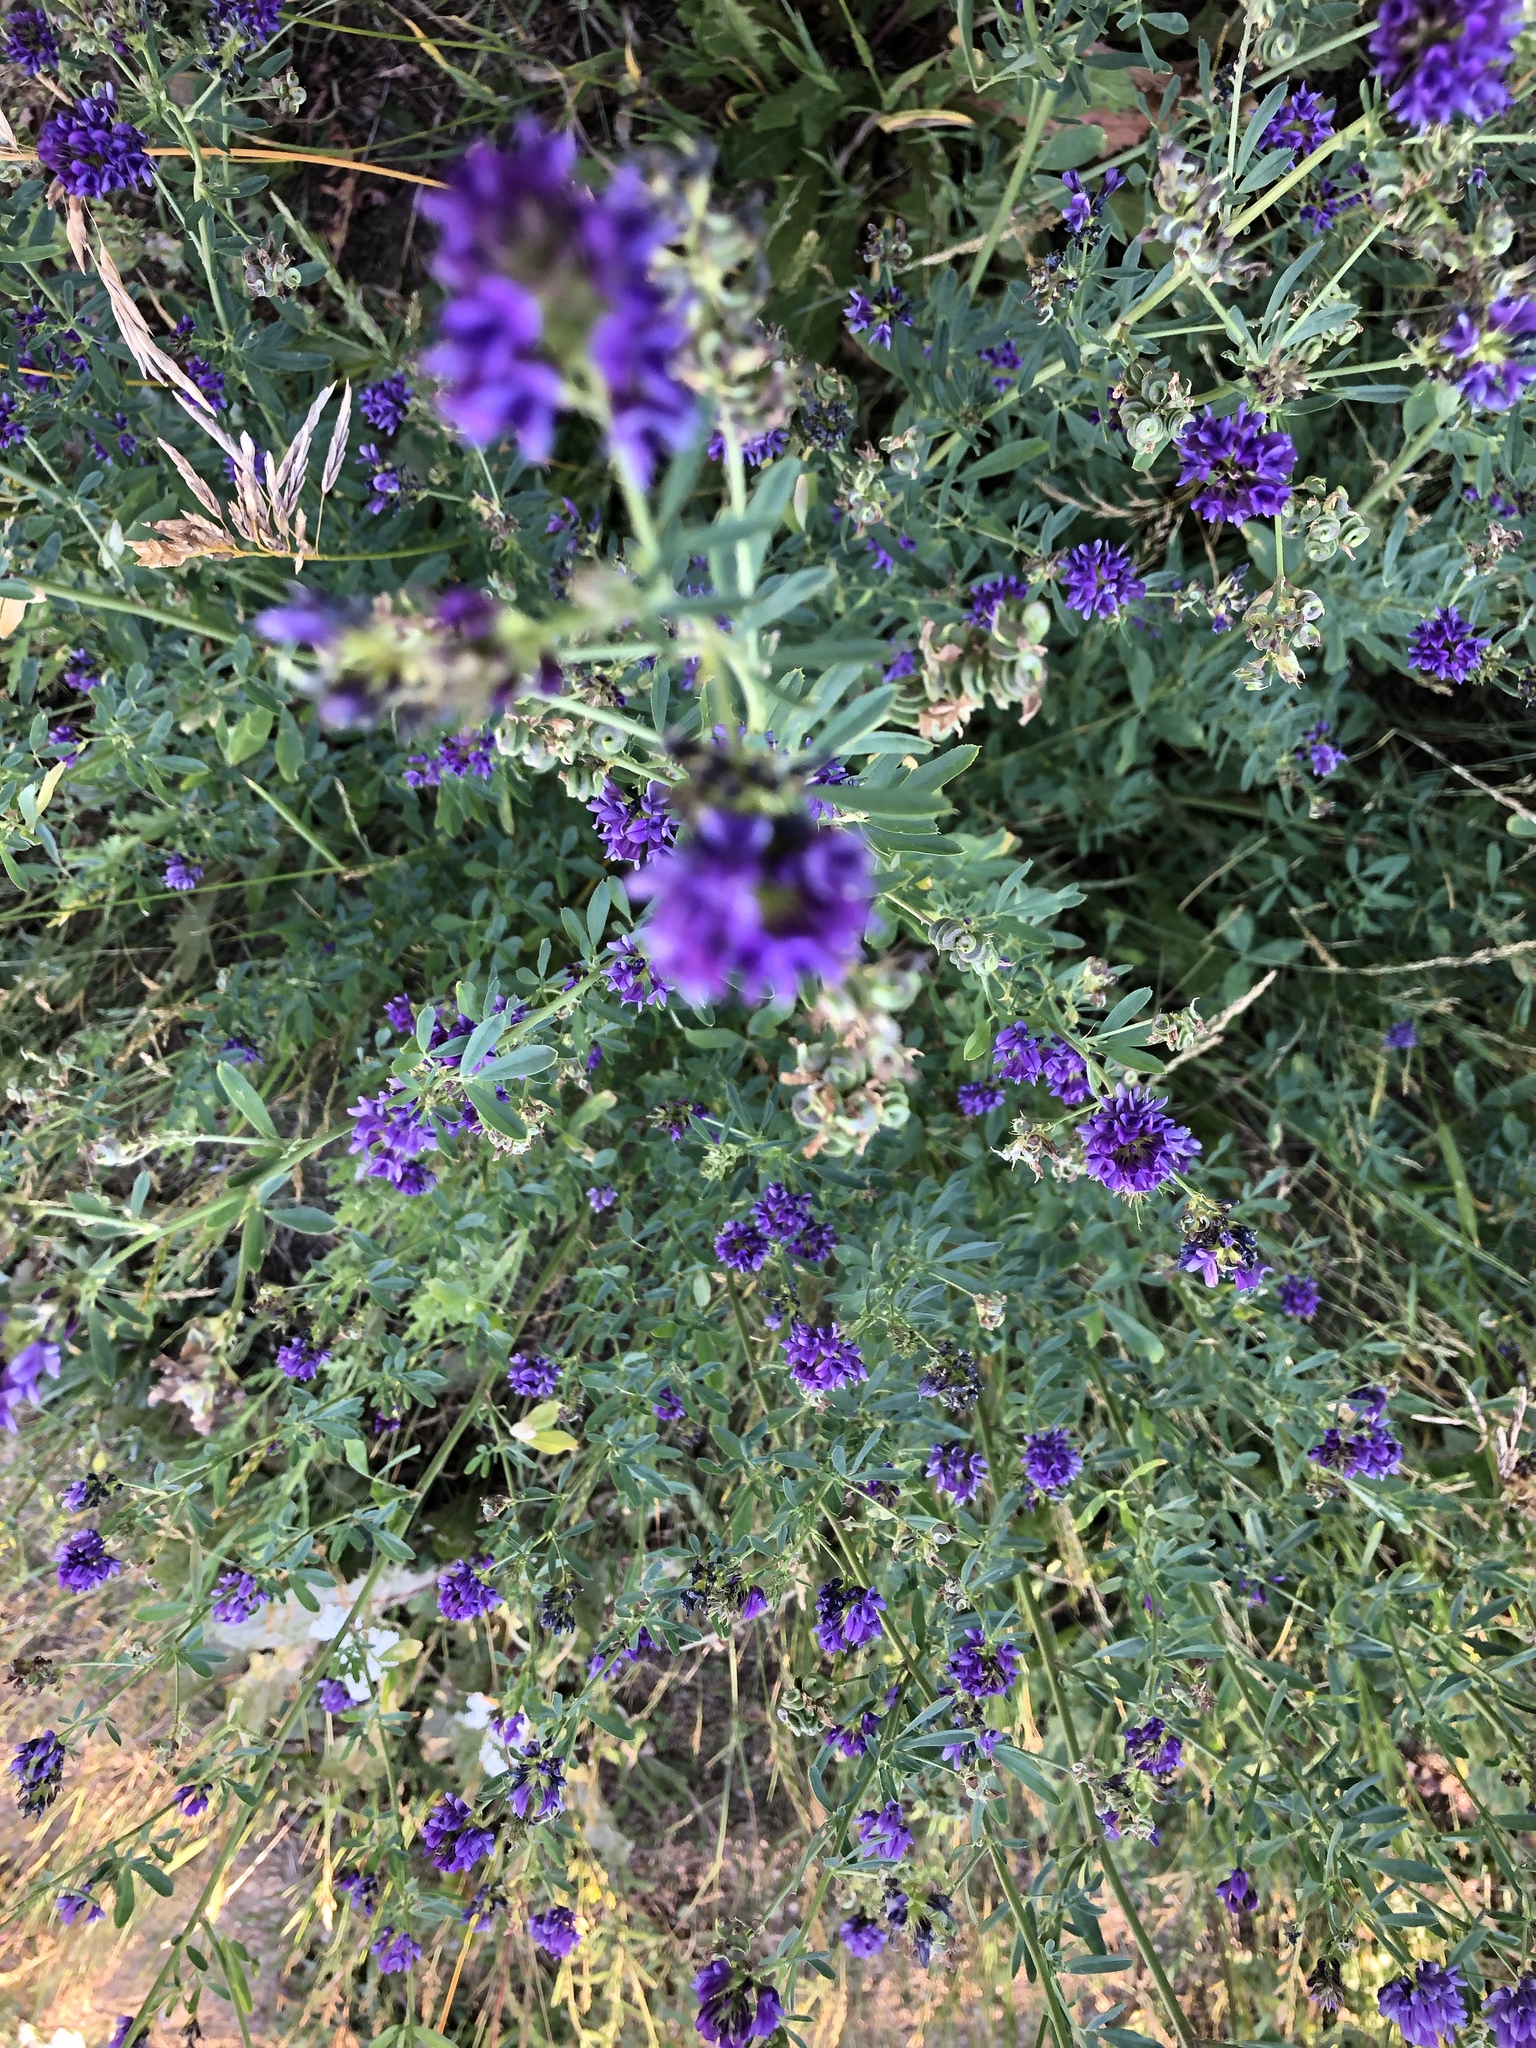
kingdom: Plantae
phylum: Tracheophyta
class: Magnoliopsida
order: Fabales
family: Fabaceae
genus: Medicago
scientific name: Medicago sativa
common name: Alfalfa
